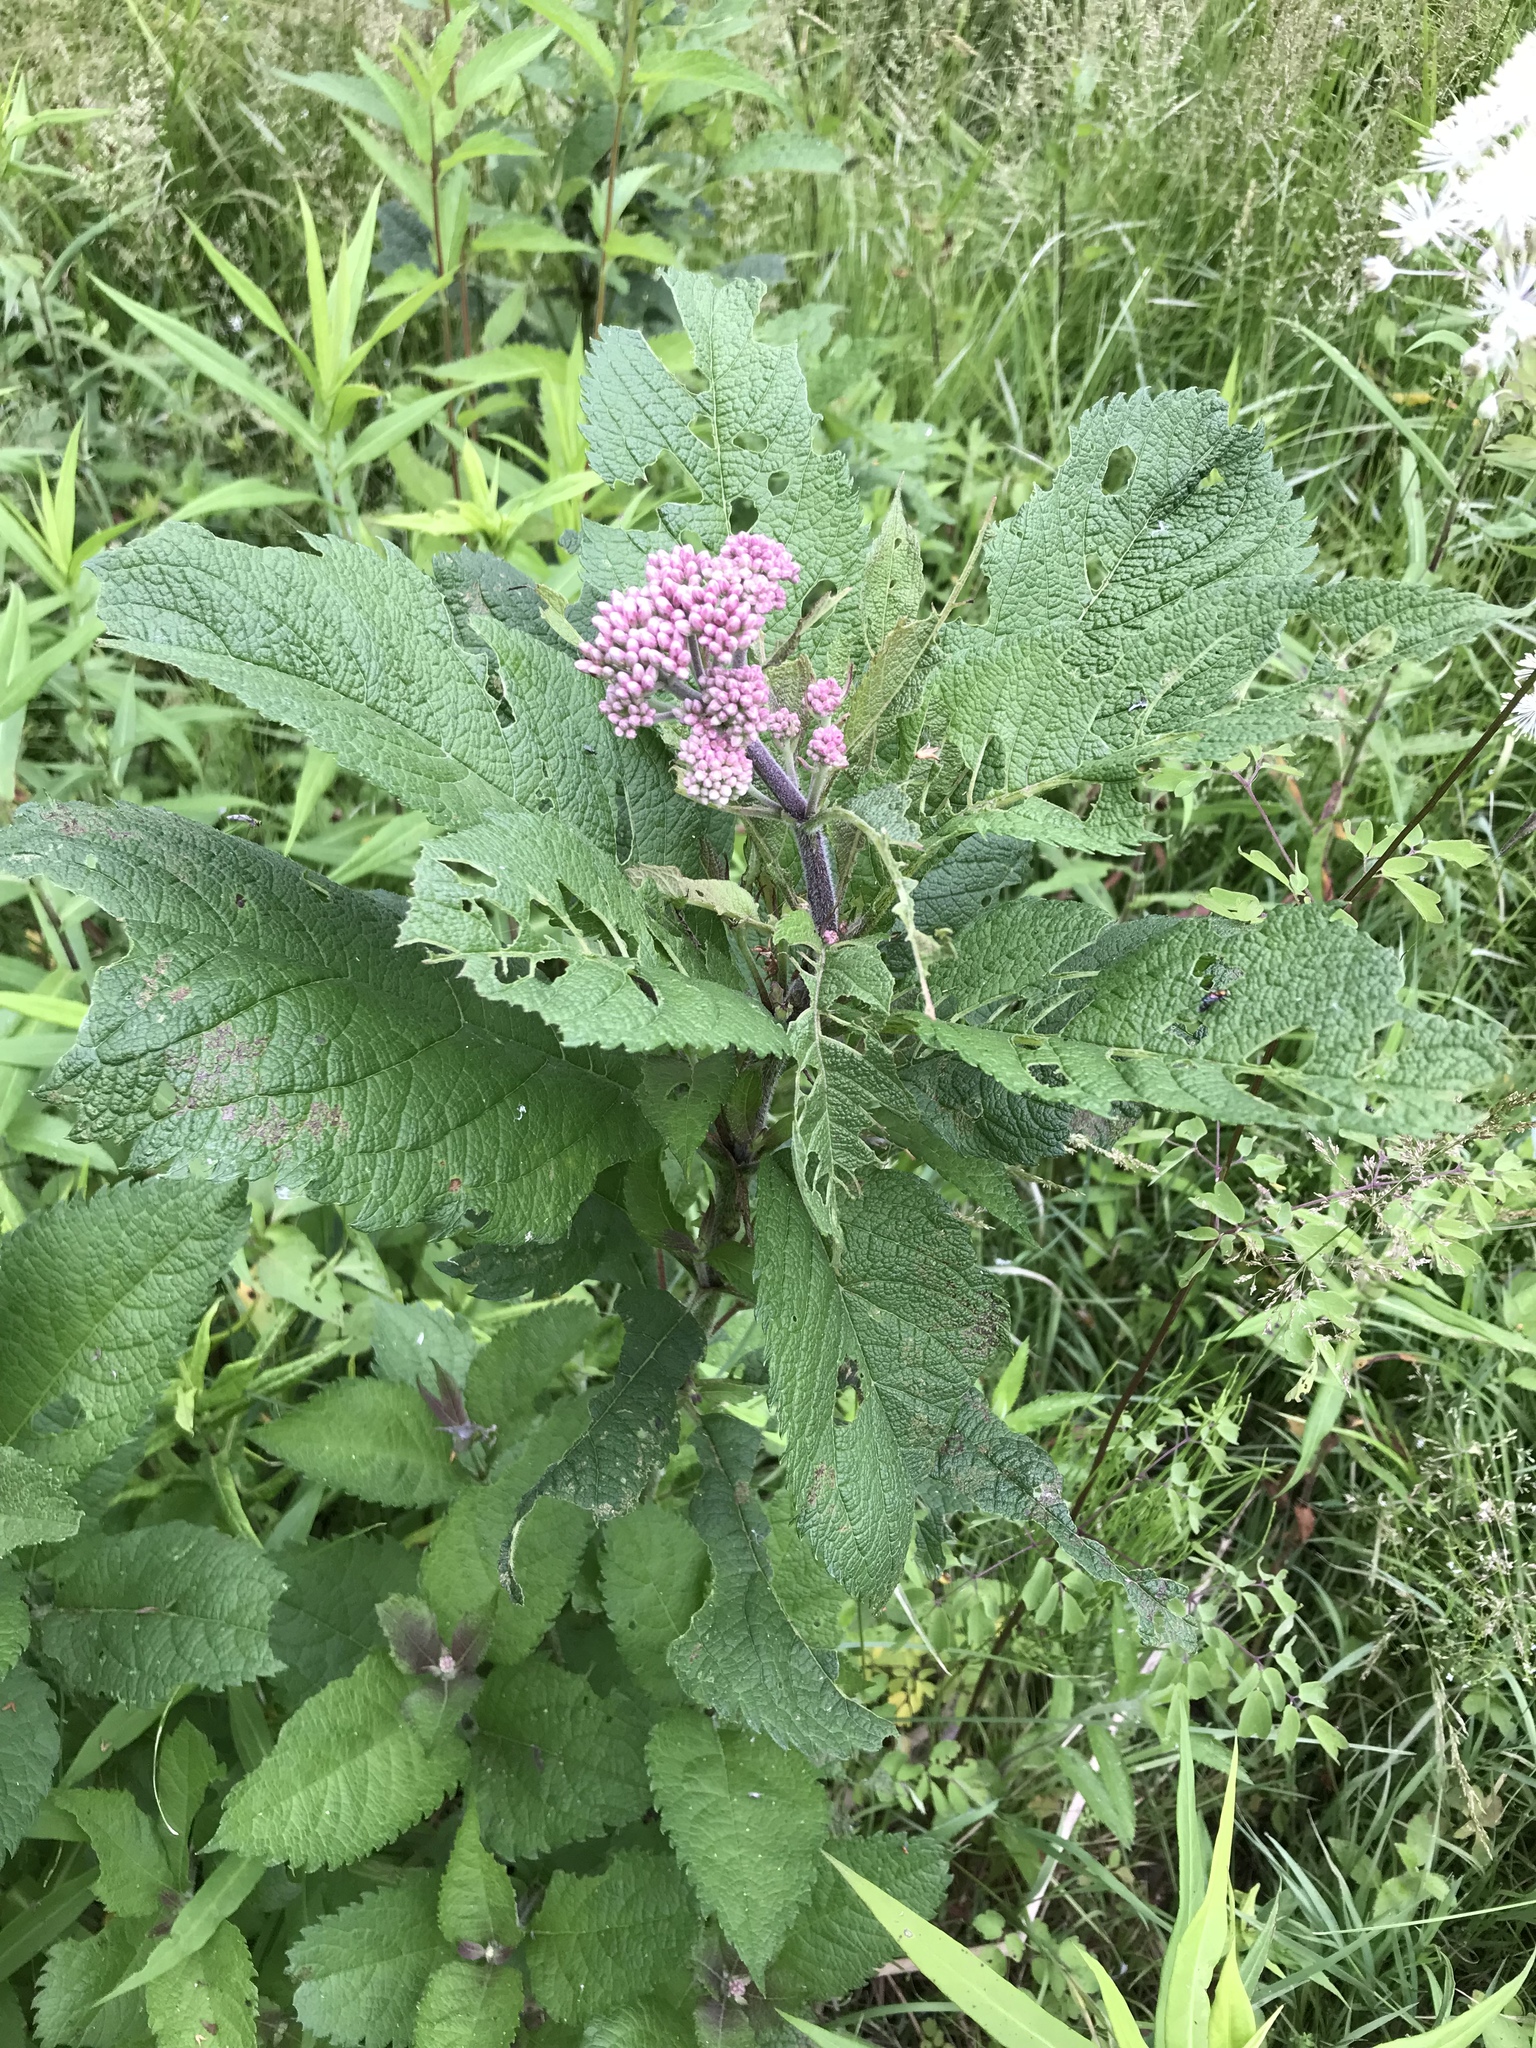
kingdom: Plantae
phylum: Tracheophyta
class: Magnoliopsida
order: Asterales
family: Asteraceae
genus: Eutrochium
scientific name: Eutrochium maculatum
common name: Spotted joe pye weed
